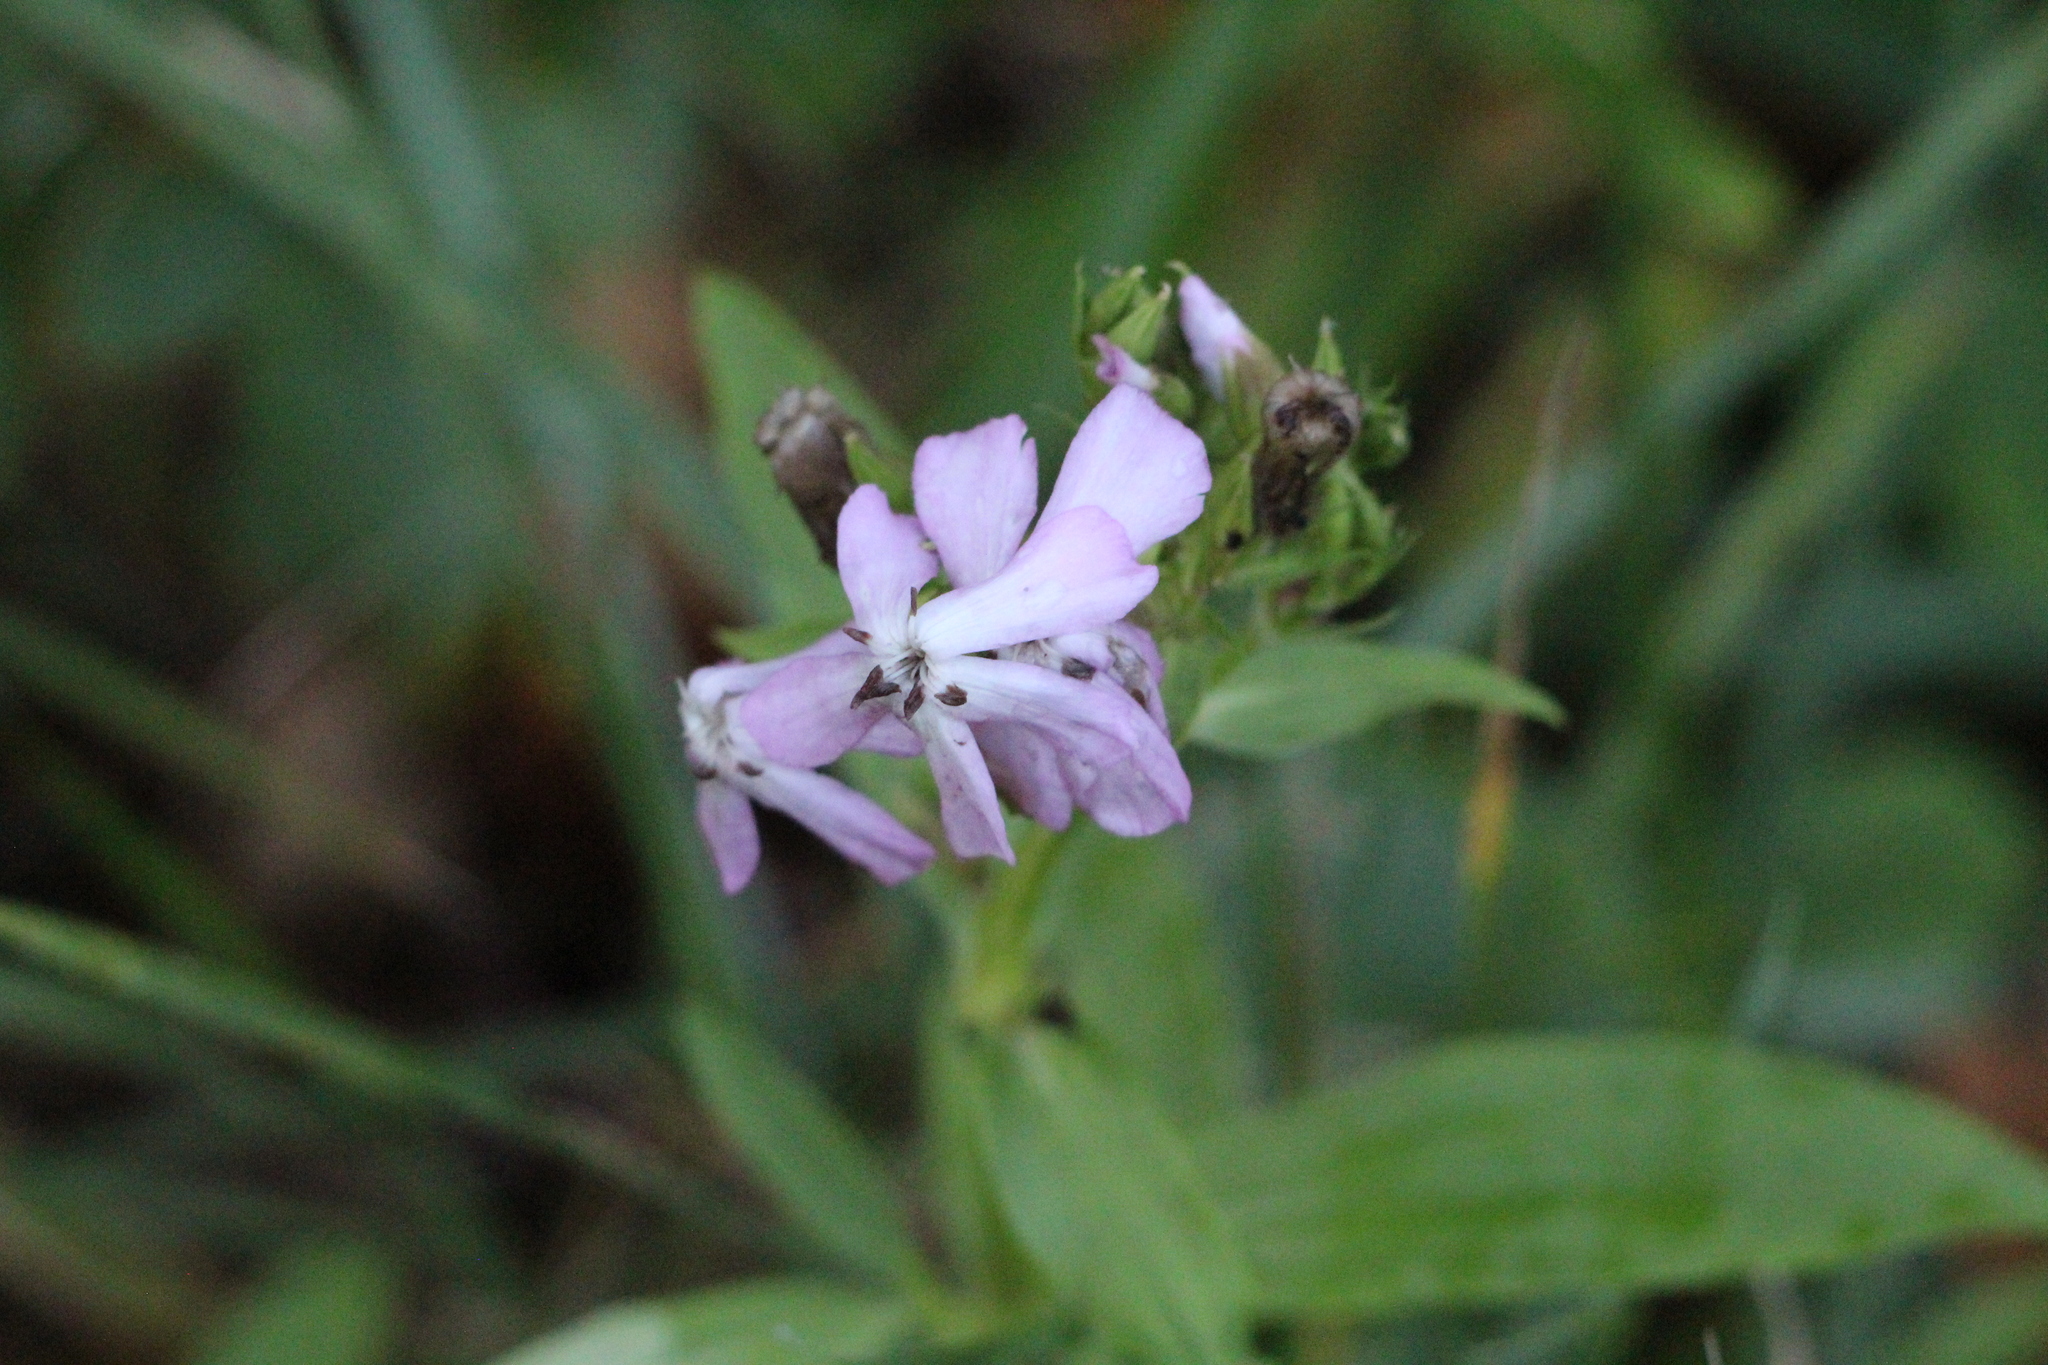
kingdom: Plantae
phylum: Tracheophyta
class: Magnoliopsida
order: Caryophyllales
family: Caryophyllaceae
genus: Saponaria
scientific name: Saponaria officinalis
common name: Soapwort
